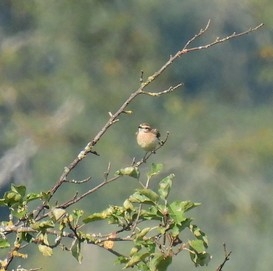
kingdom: Animalia
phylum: Chordata
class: Aves
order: Passeriformes
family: Muscicapidae
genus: Saxicola
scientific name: Saxicola rubetra
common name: Whinchat
